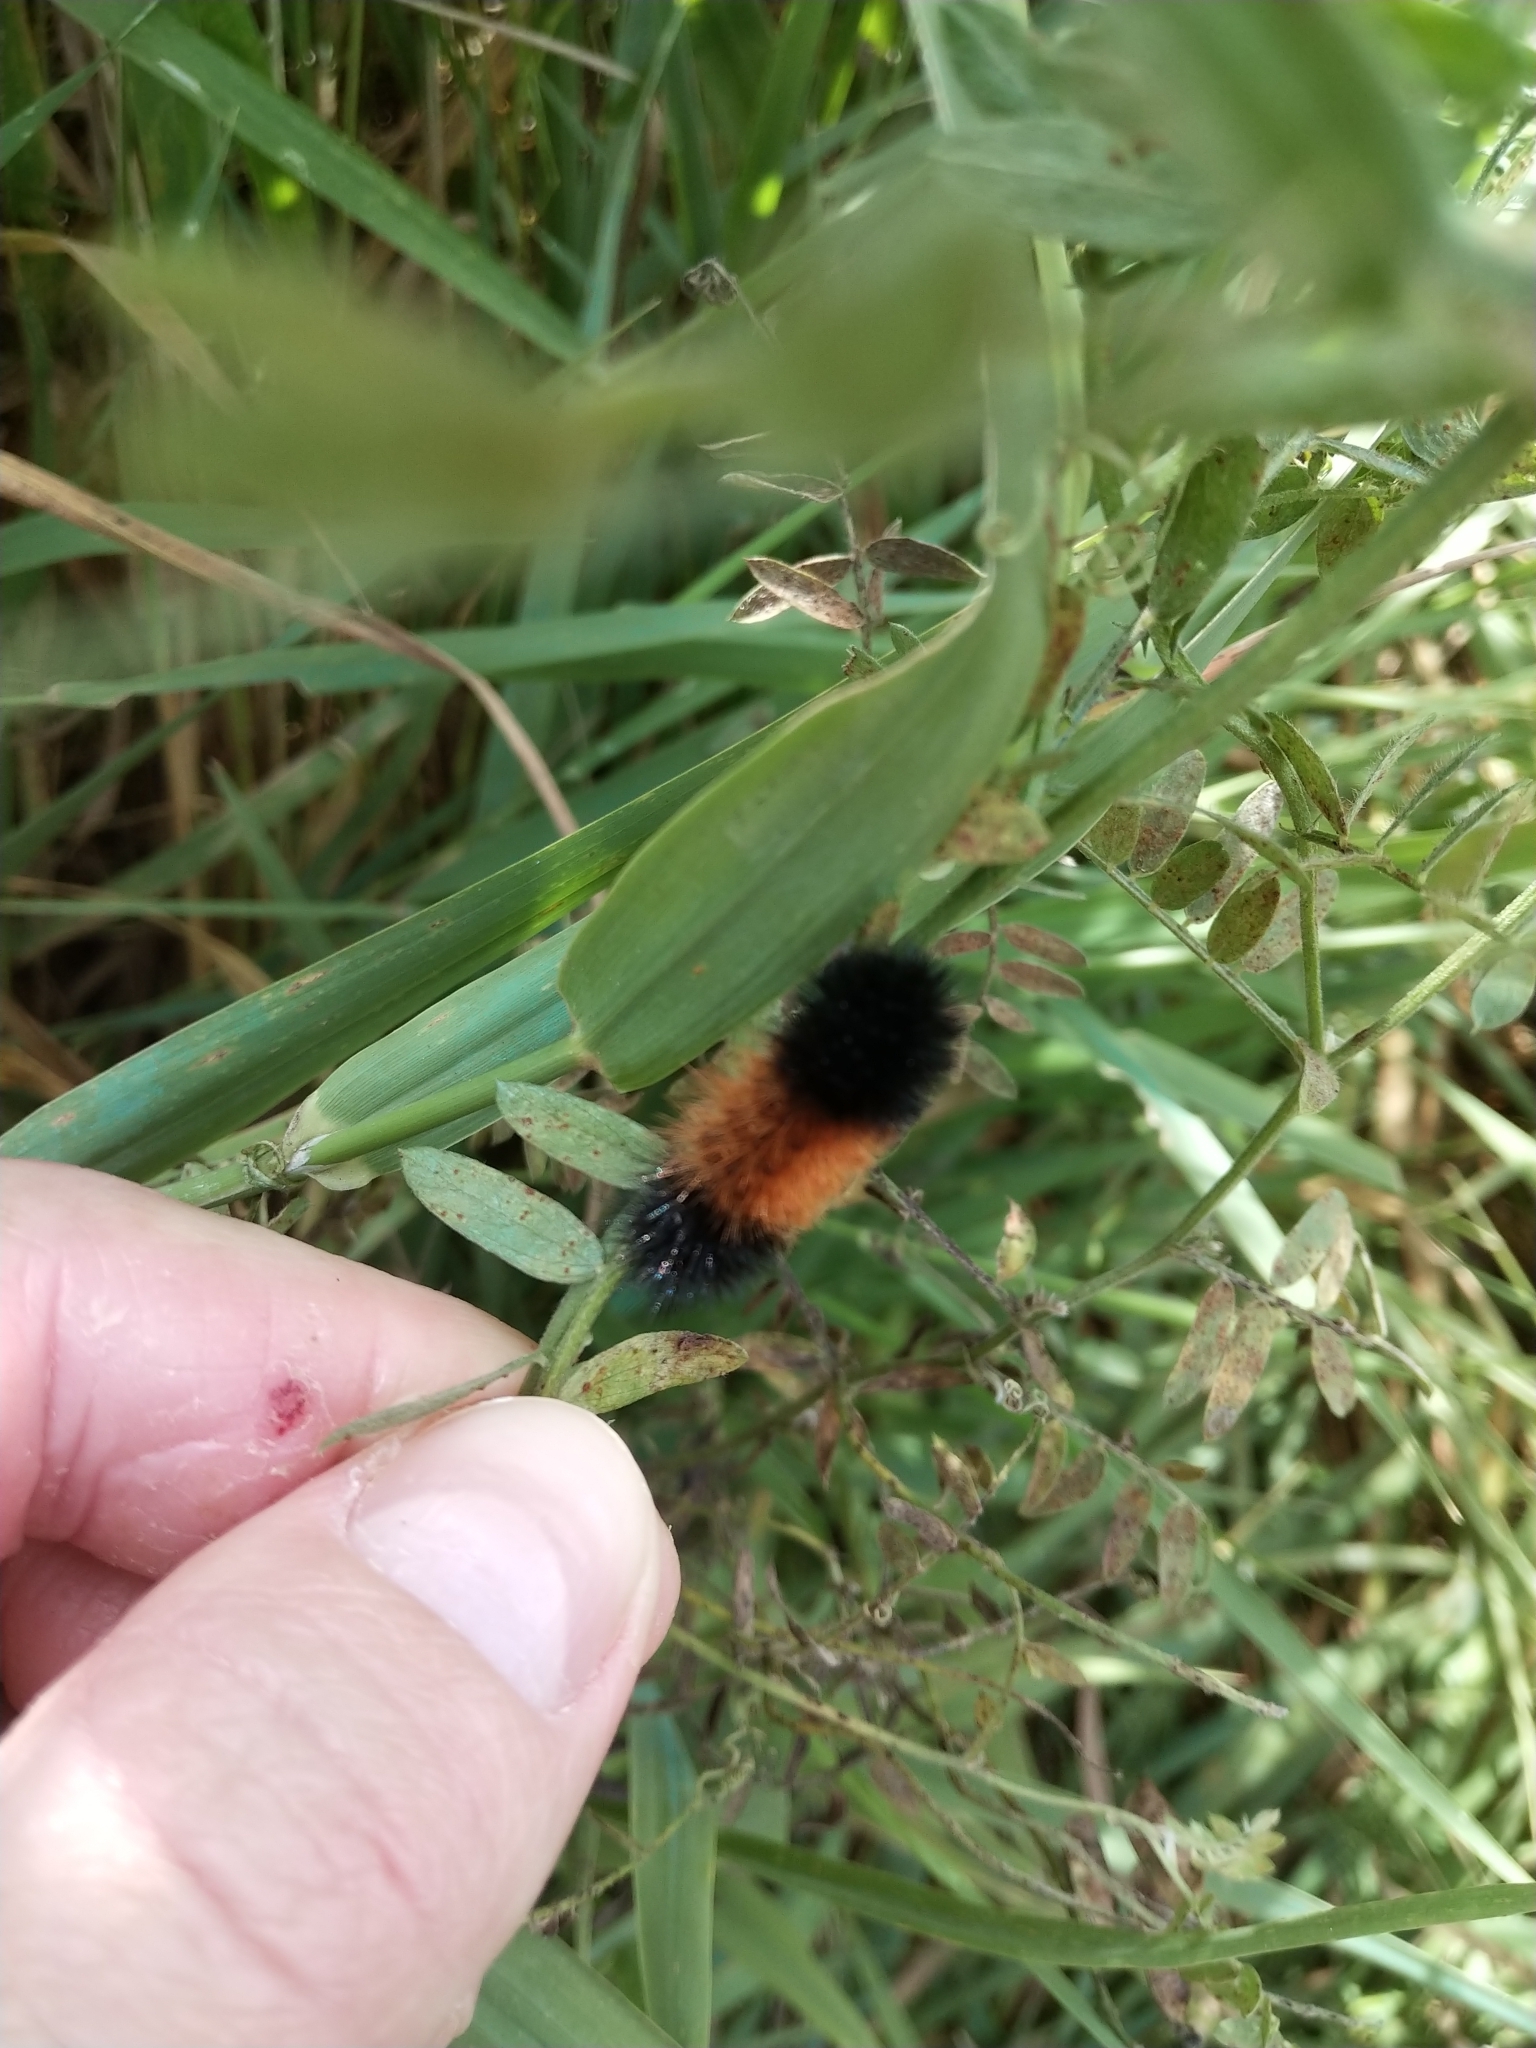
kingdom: Animalia
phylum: Arthropoda
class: Insecta
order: Lepidoptera
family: Erebidae
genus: Pyrrharctia
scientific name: Pyrrharctia isabella
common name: Isabella tiger moth
